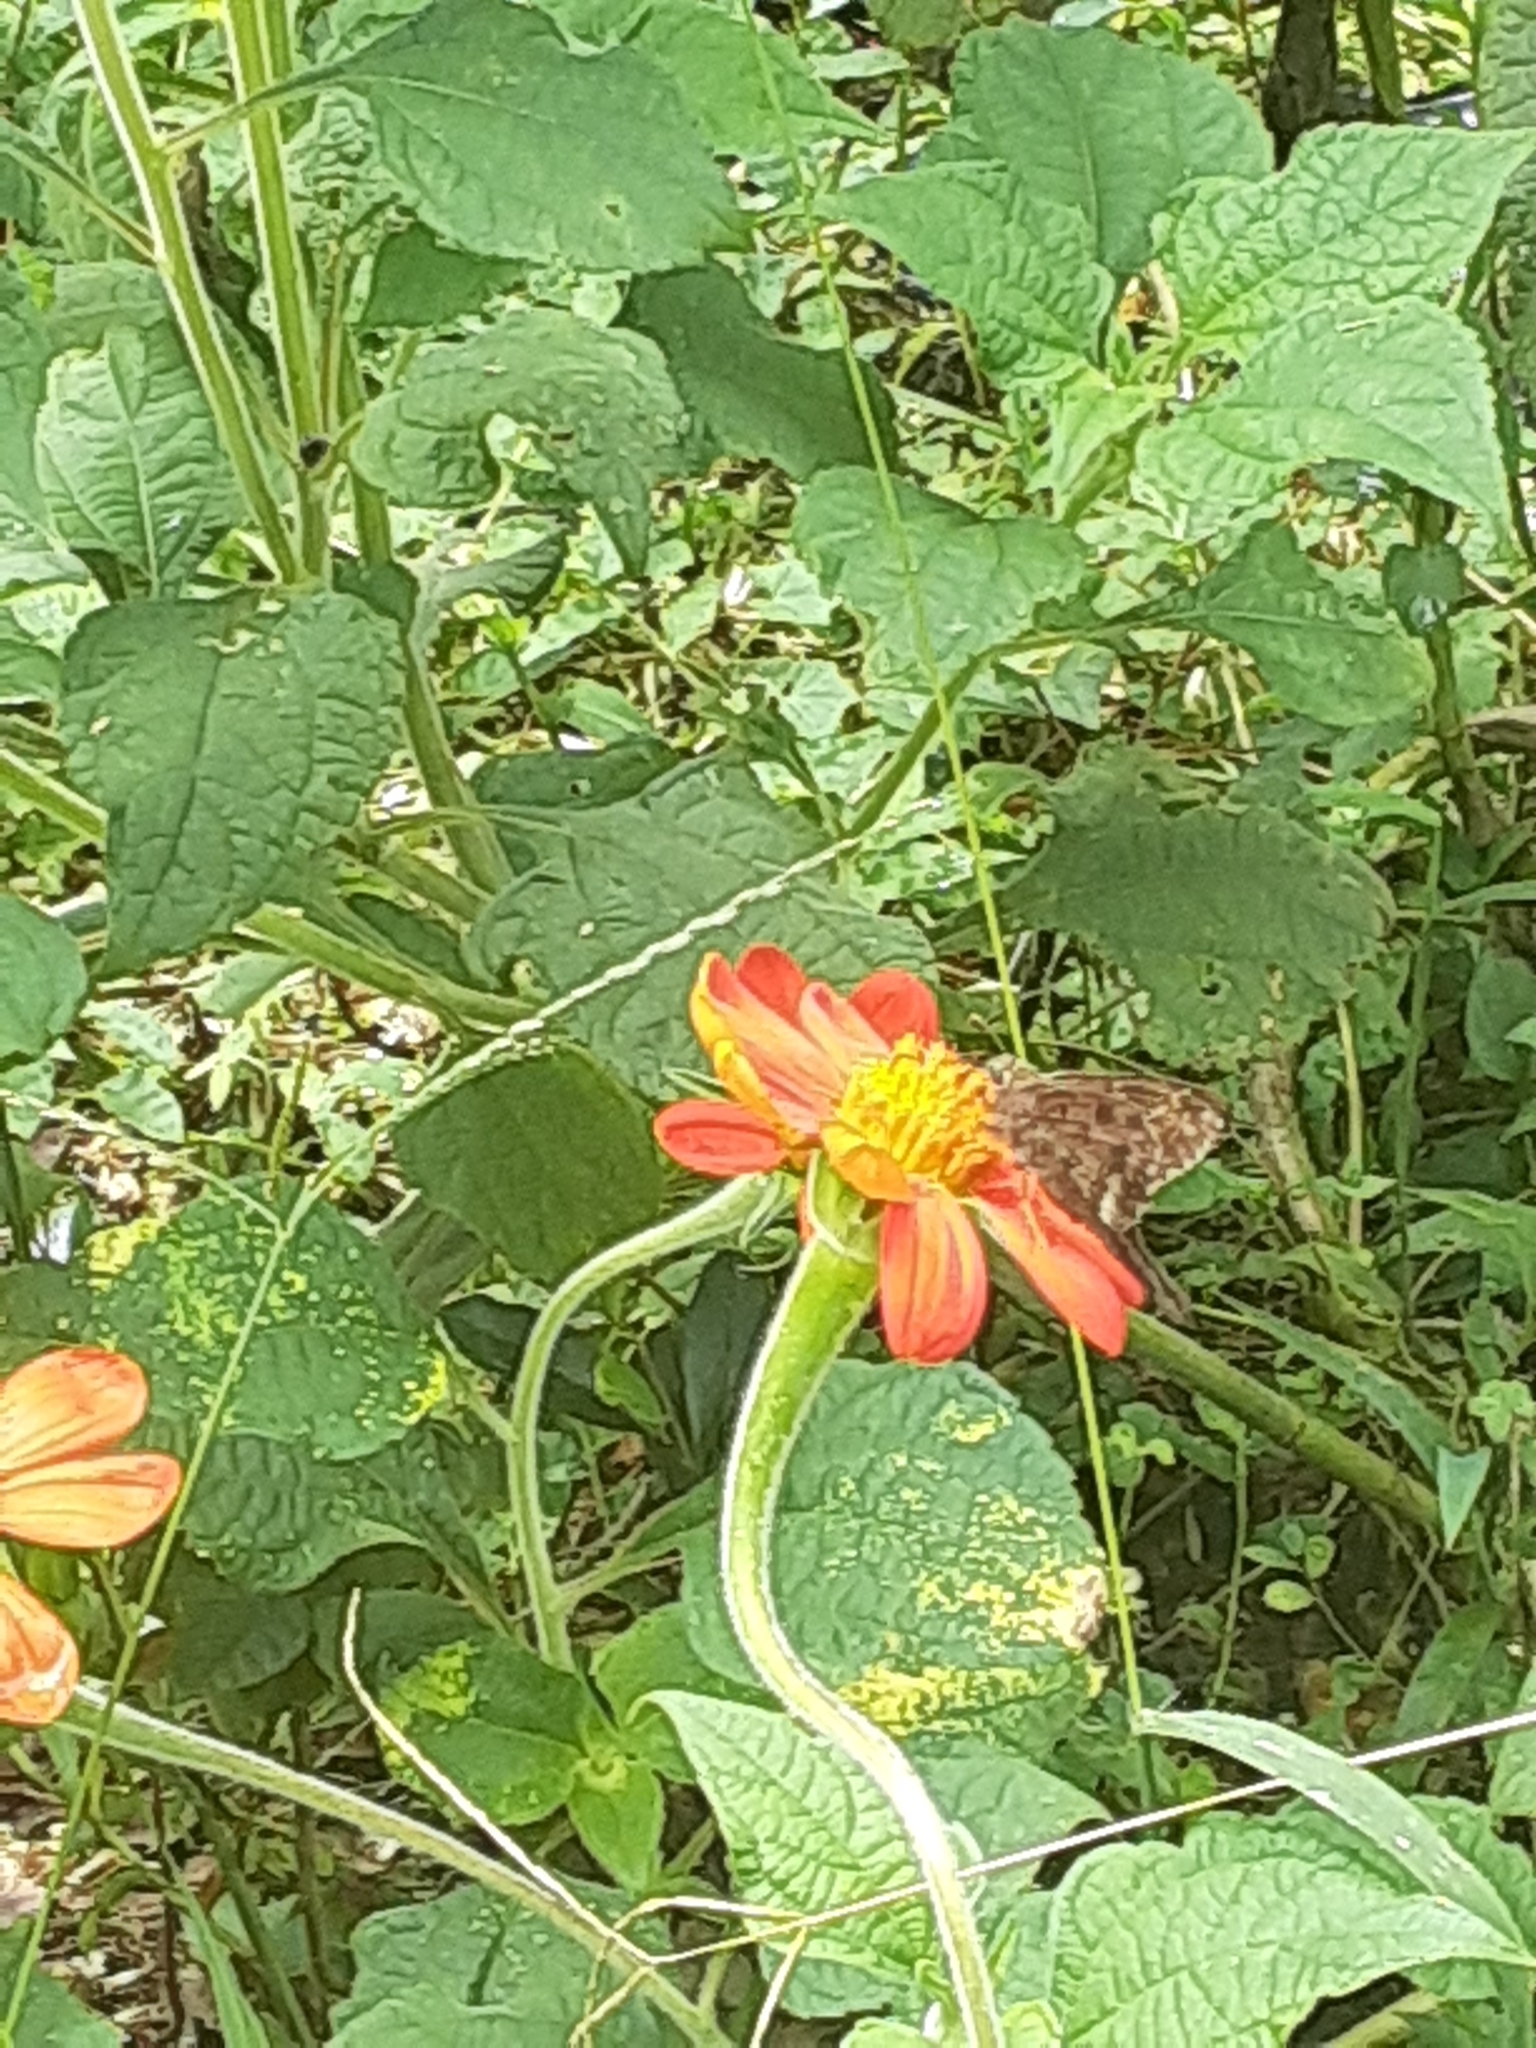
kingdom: Animalia
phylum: Arthropoda
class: Insecta
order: Lepidoptera
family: Hesperiidae
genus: Thorybes
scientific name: Thorybes
